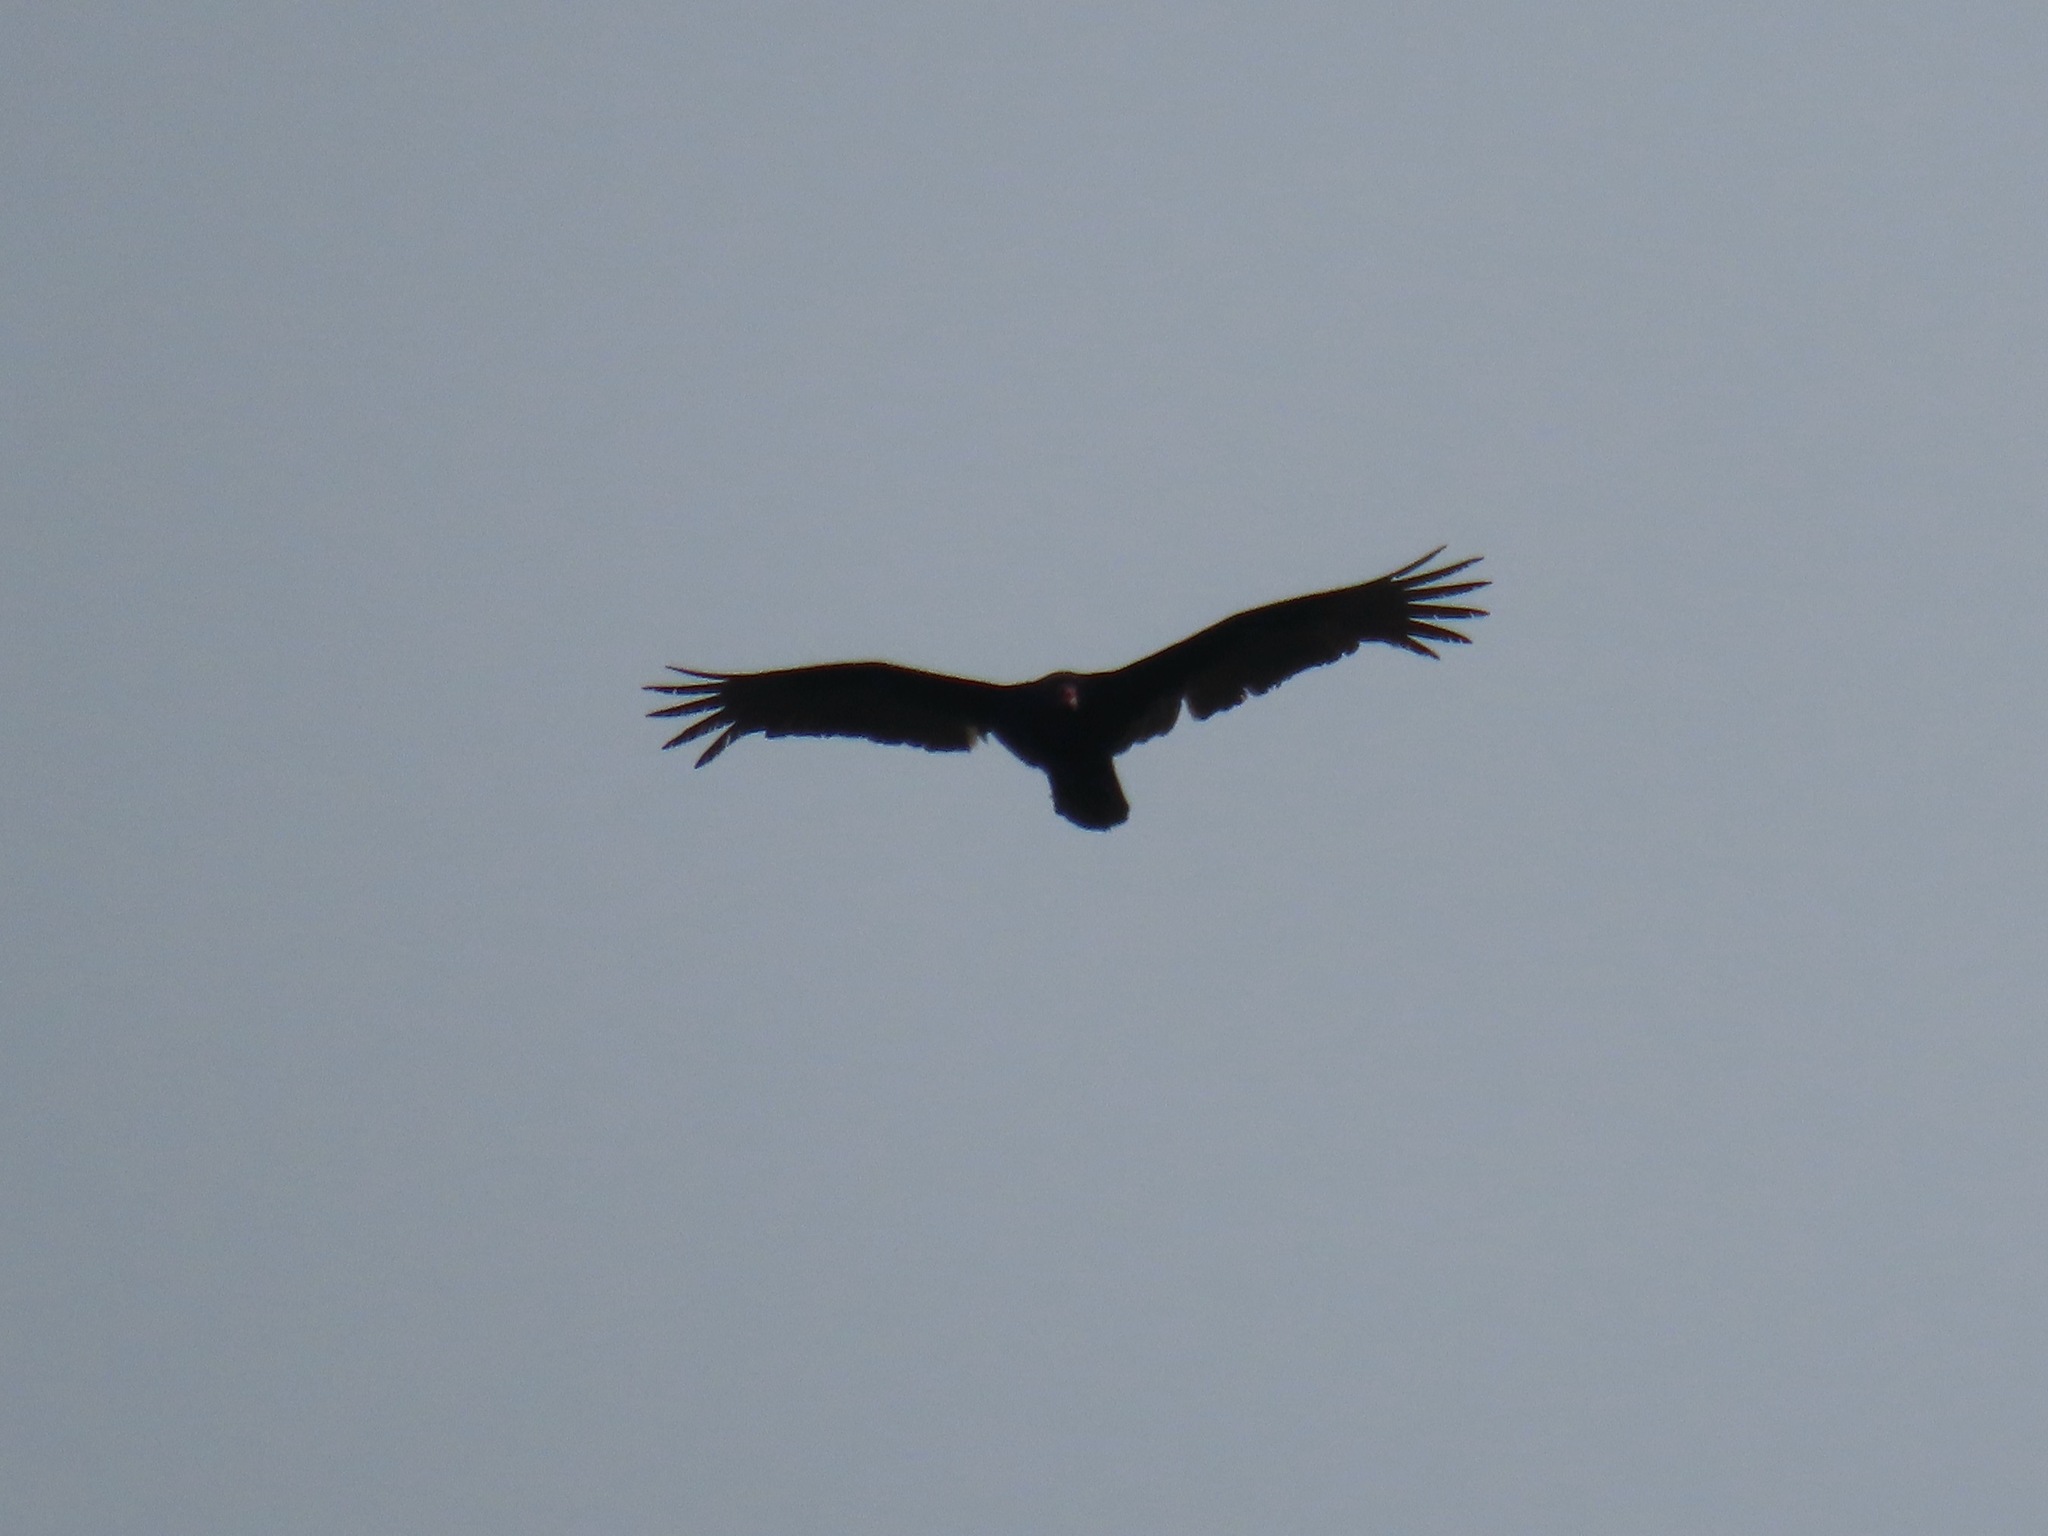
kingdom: Animalia
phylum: Chordata
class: Aves
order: Accipitriformes
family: Cathartidae
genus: Cathartes
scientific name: Cathartes aura
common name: Turkey vulture
